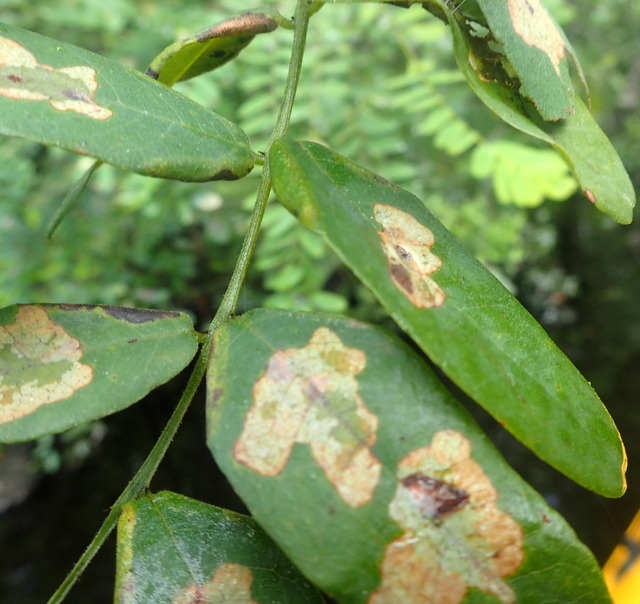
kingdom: Animalia
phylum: Arthropoda
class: Insecta
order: Lepidoptera
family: Gracillariidae
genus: Parectopa
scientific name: Parectopa robiniella
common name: Locust digitate leafminer
